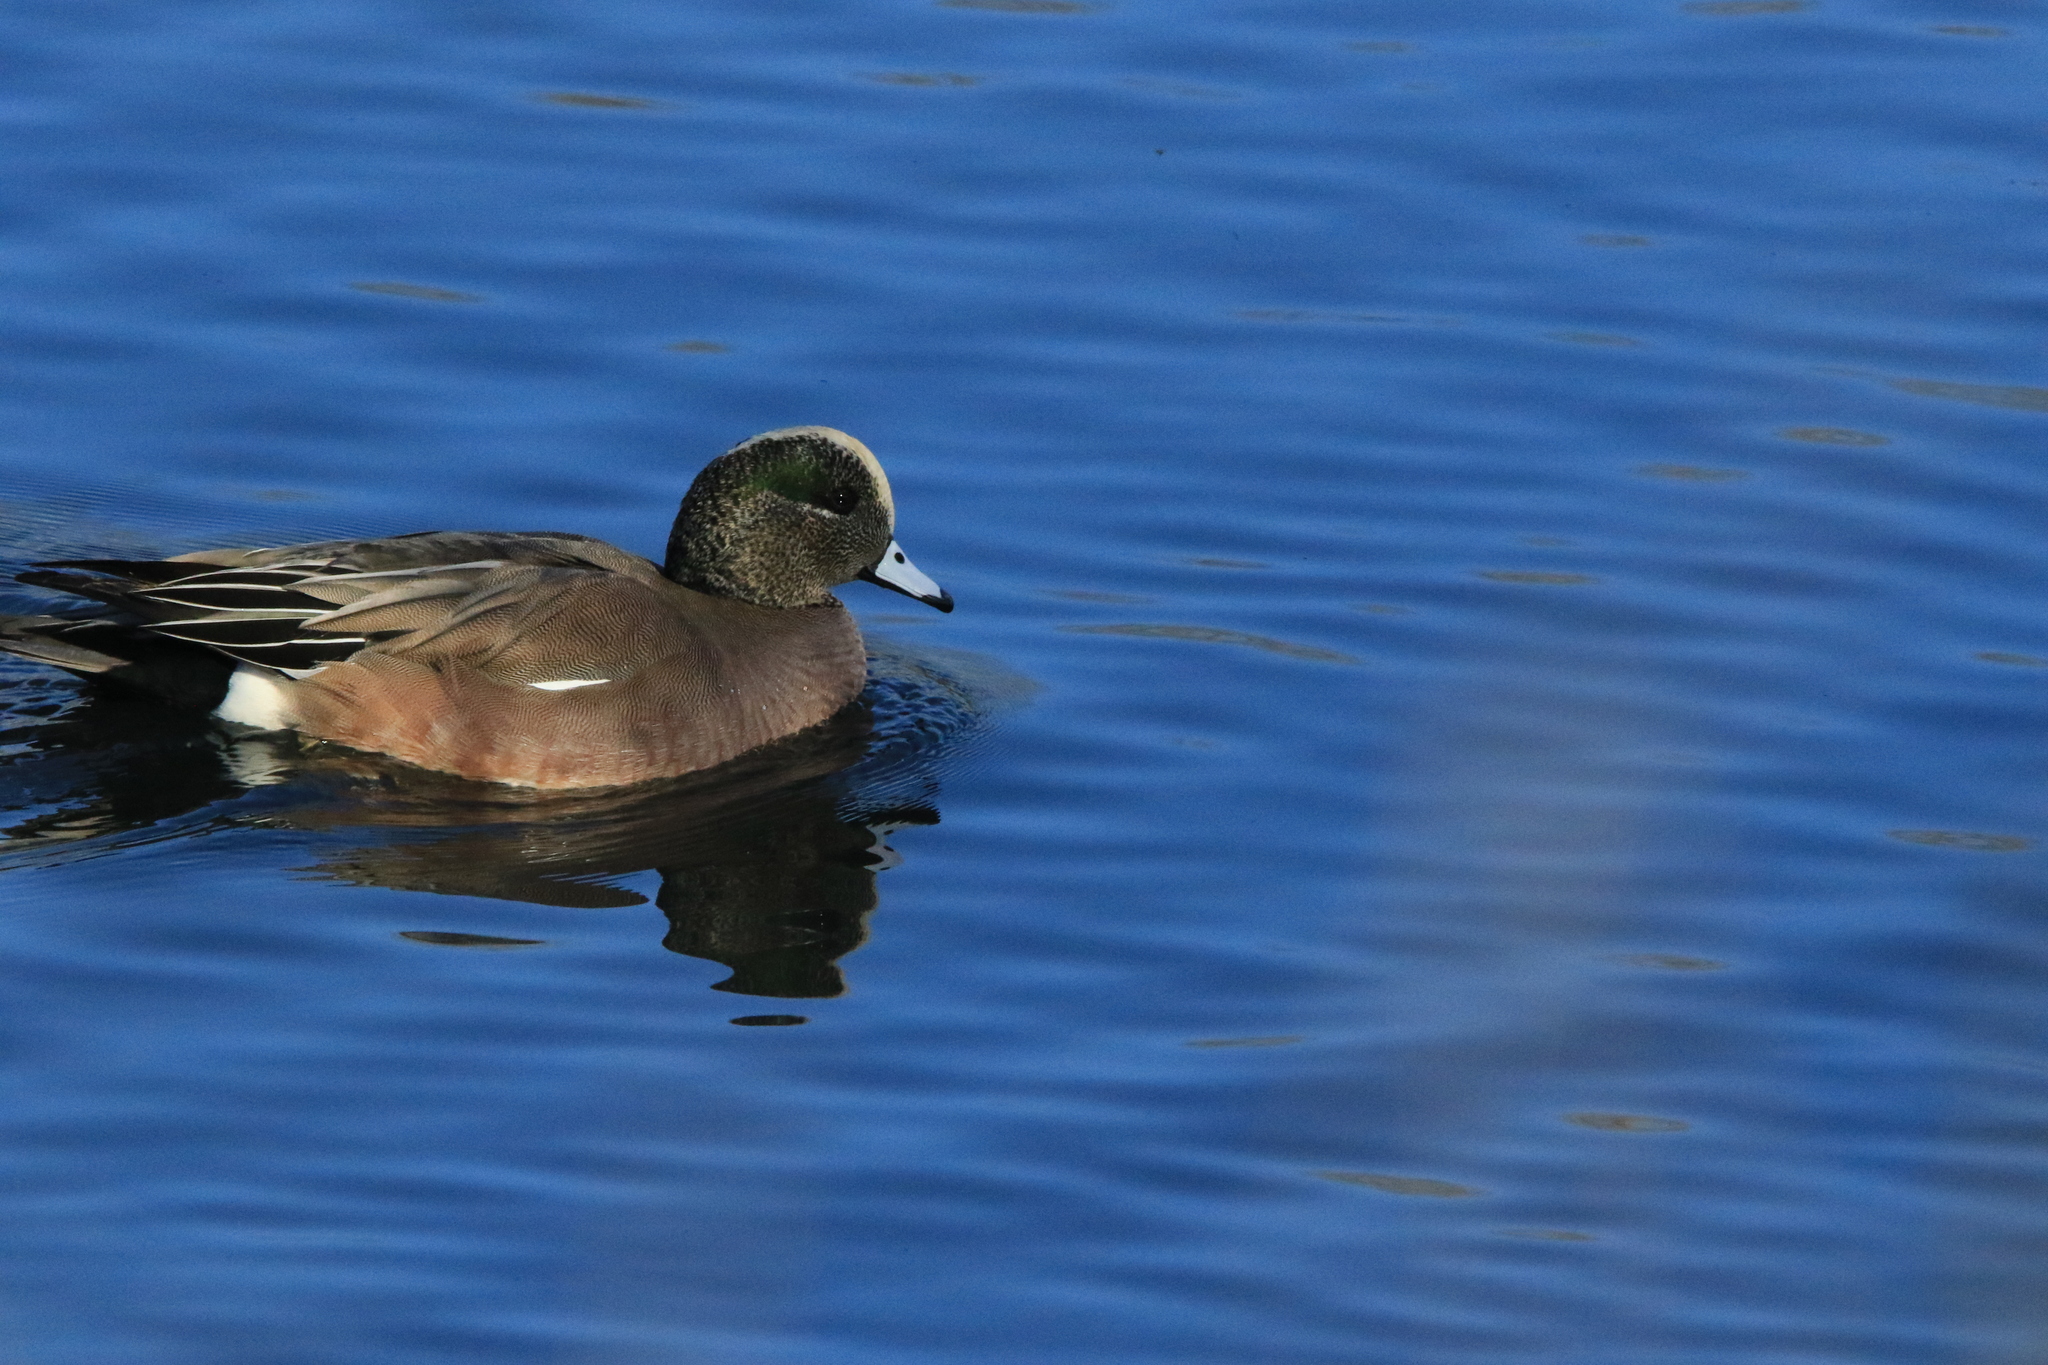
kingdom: Animalia
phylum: Chordata
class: Aves
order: Anseriformes
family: Anatidae
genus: Mareca
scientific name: Mareca americana
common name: American wigeon
